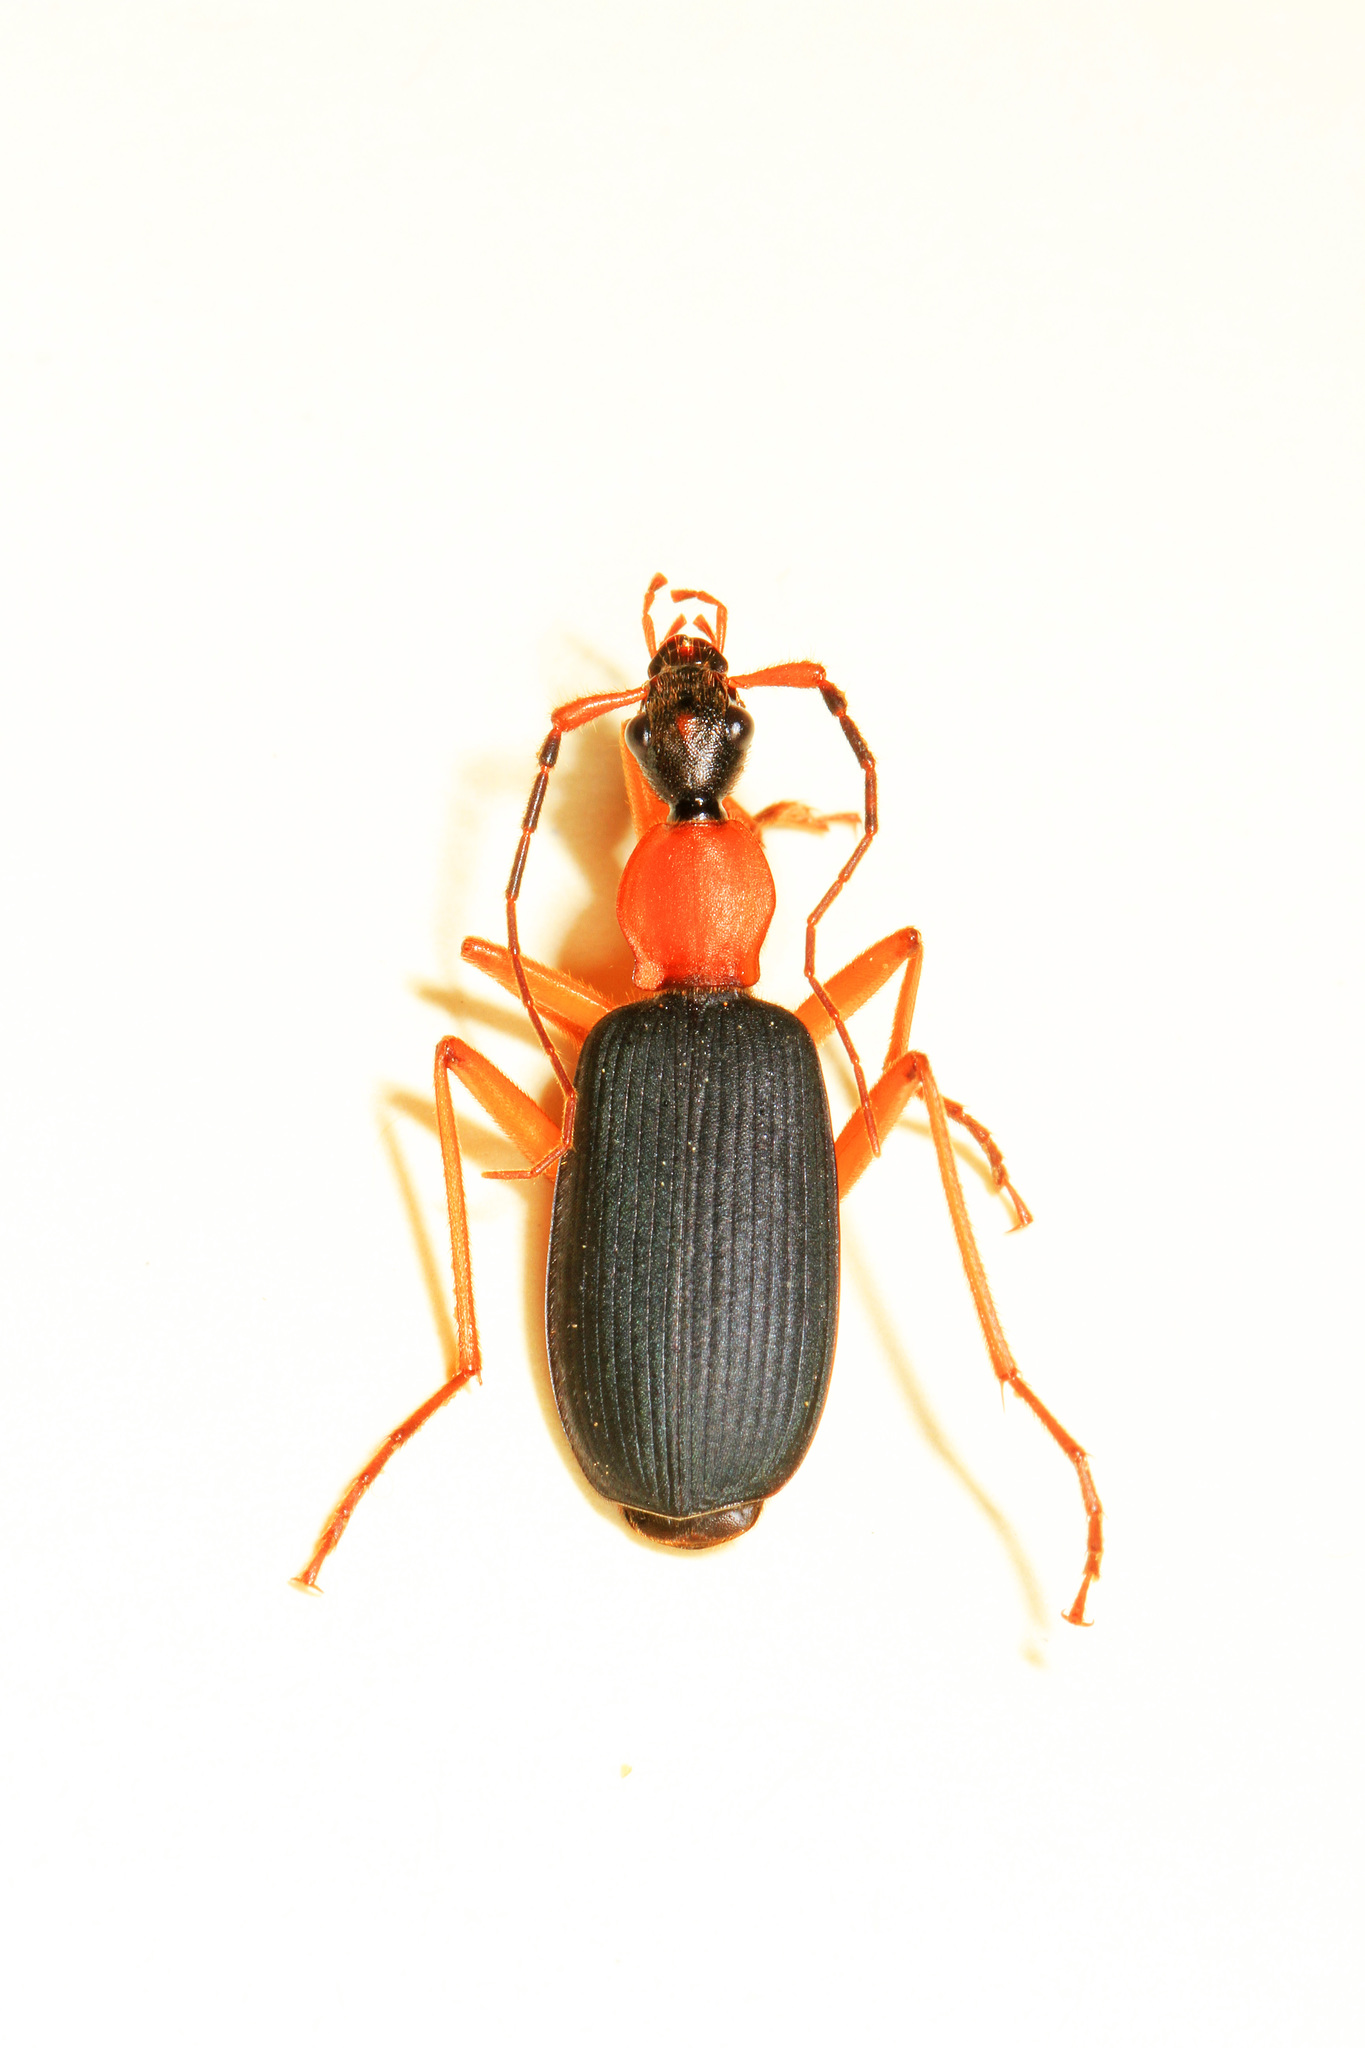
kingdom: Animalia
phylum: Arthropoda
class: Insecta
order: Coleoptera
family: Carabidae
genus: Galerita
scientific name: Galerita bicolor
